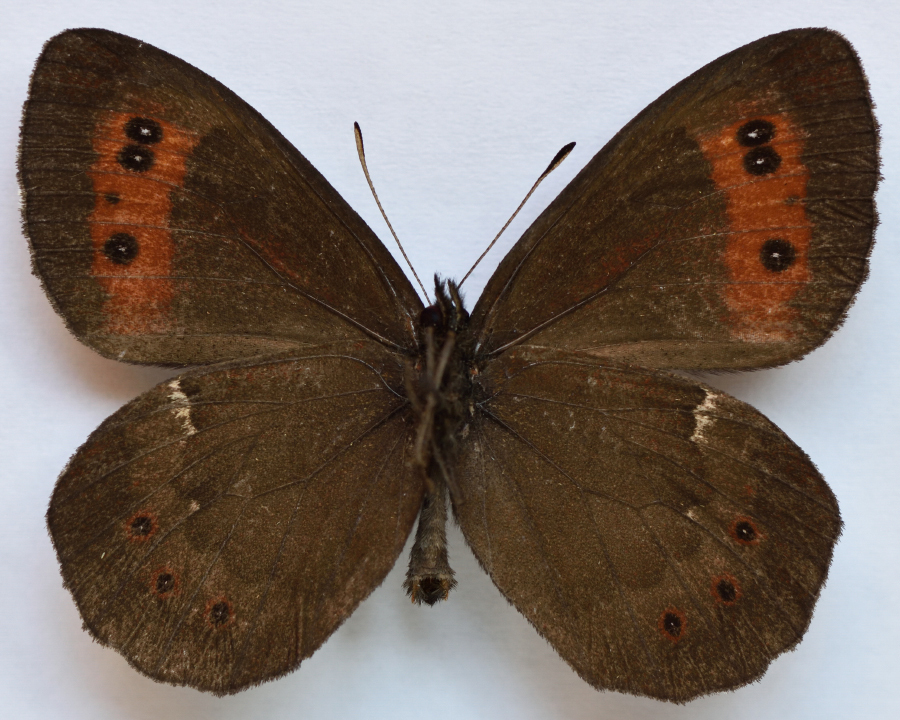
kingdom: Animalia
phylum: Arthropoda
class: Insecta
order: Lepidoptera
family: Nymphalidae
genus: Erebia
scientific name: Erebia ligea
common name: Arran brown
